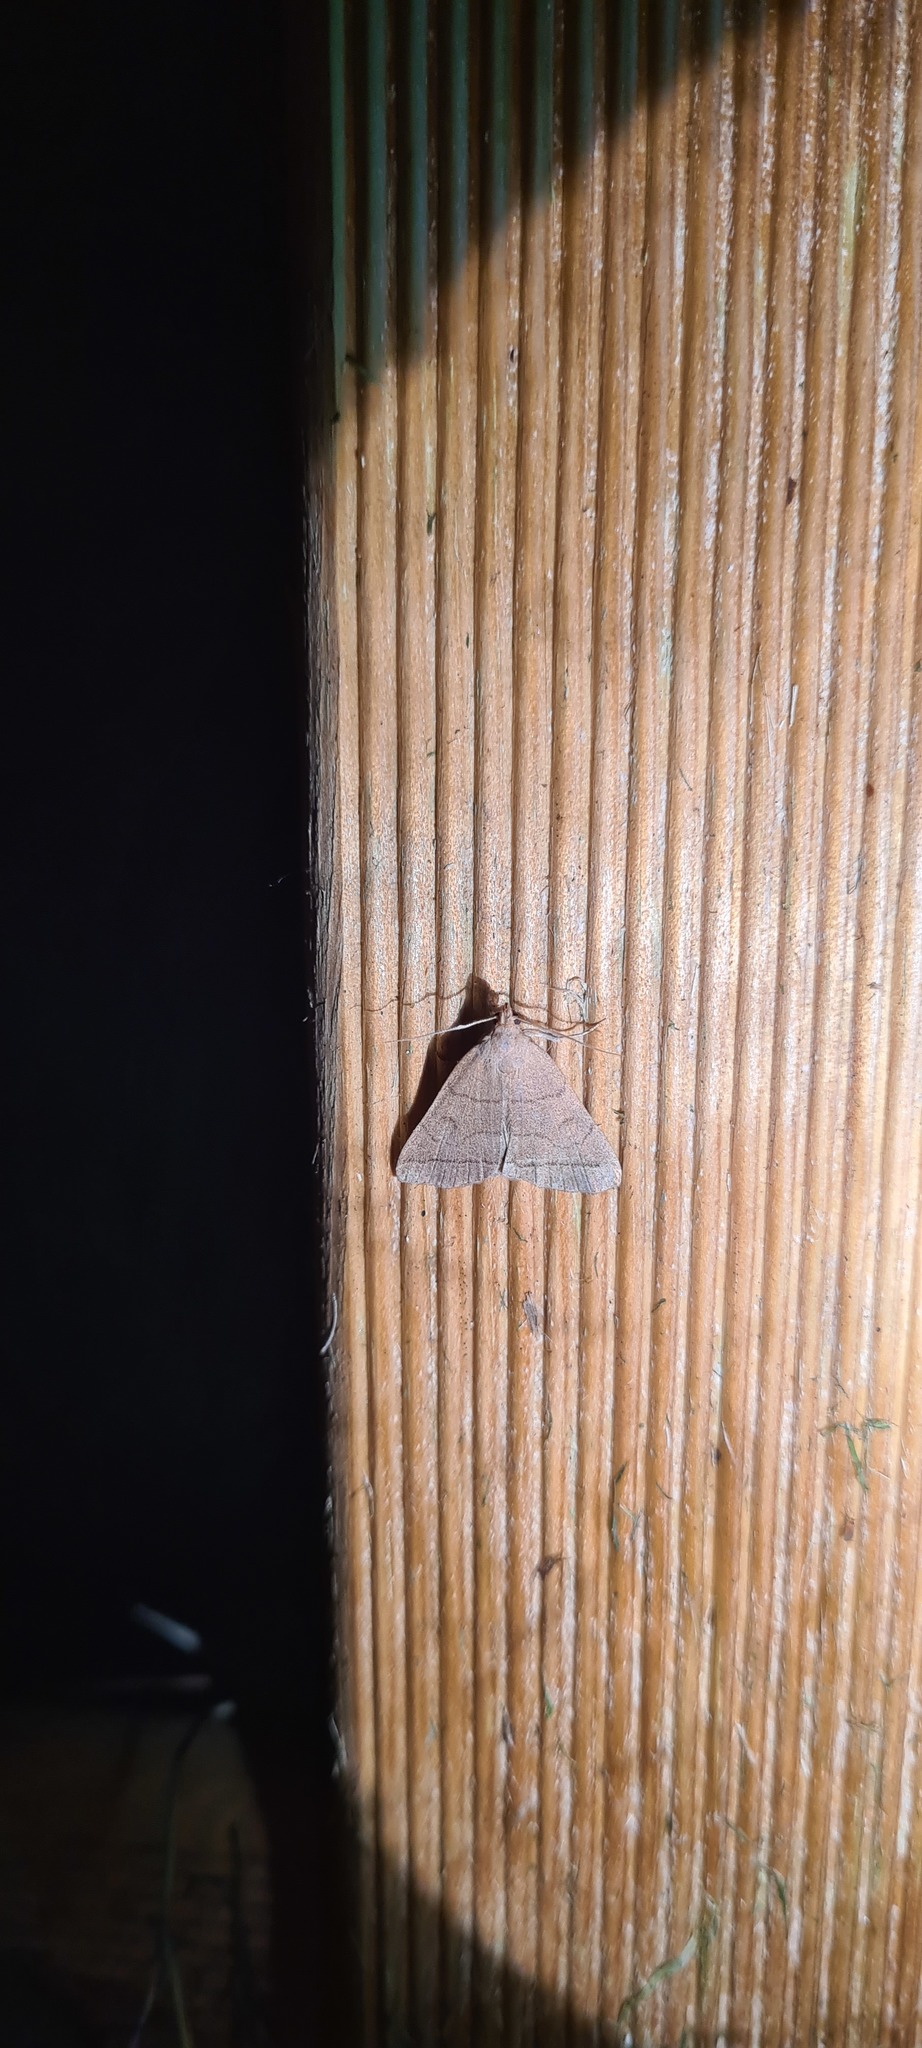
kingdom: Animalia
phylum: Arthropoda
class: Insecta
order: Lepidoptera
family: Erebidae
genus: Herminia
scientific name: Herminia tarsipennalis
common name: Fan-foot
